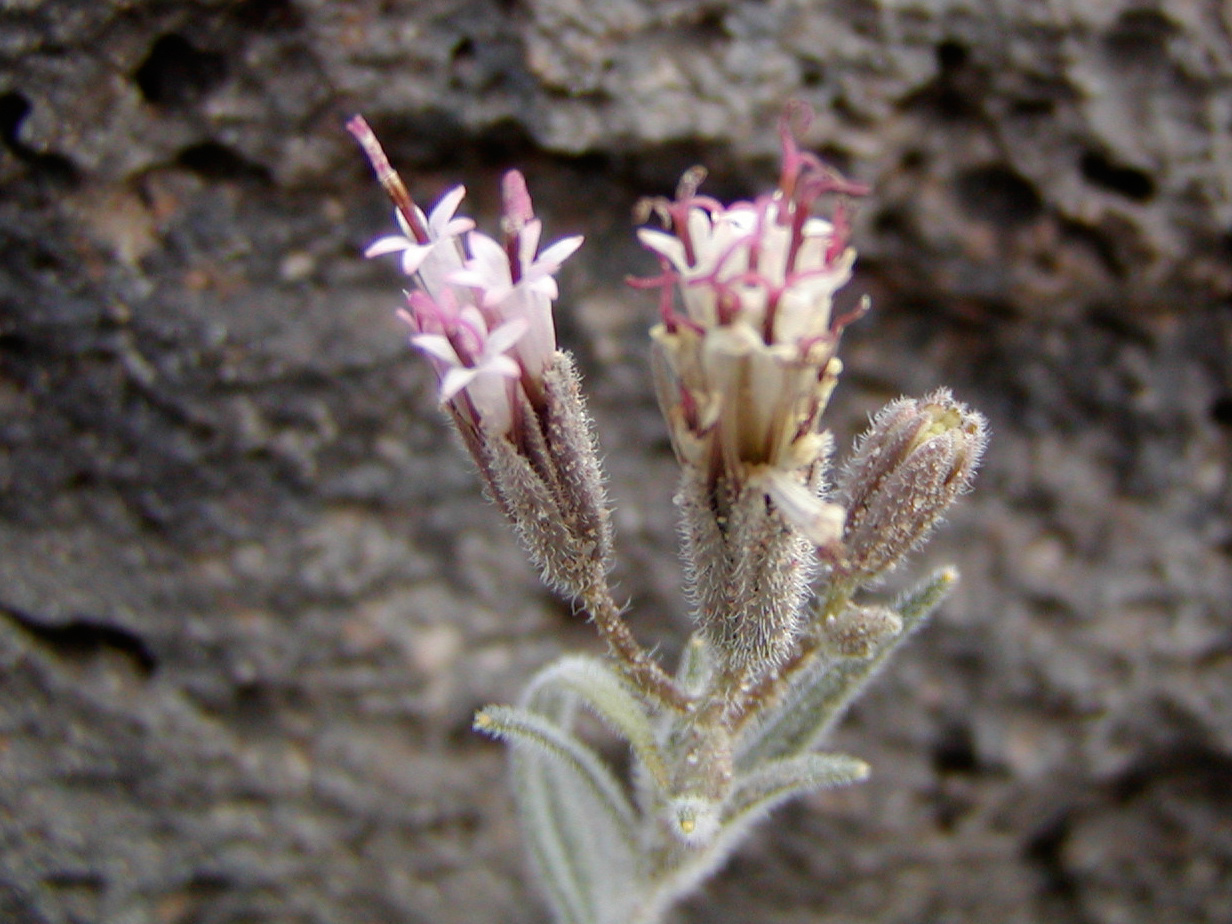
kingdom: Plantae
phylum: Tracheophyta
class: Magnoliopsida
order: Asterales
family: Asteraceae
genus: Palafoxia
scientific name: Palafoxia arida
